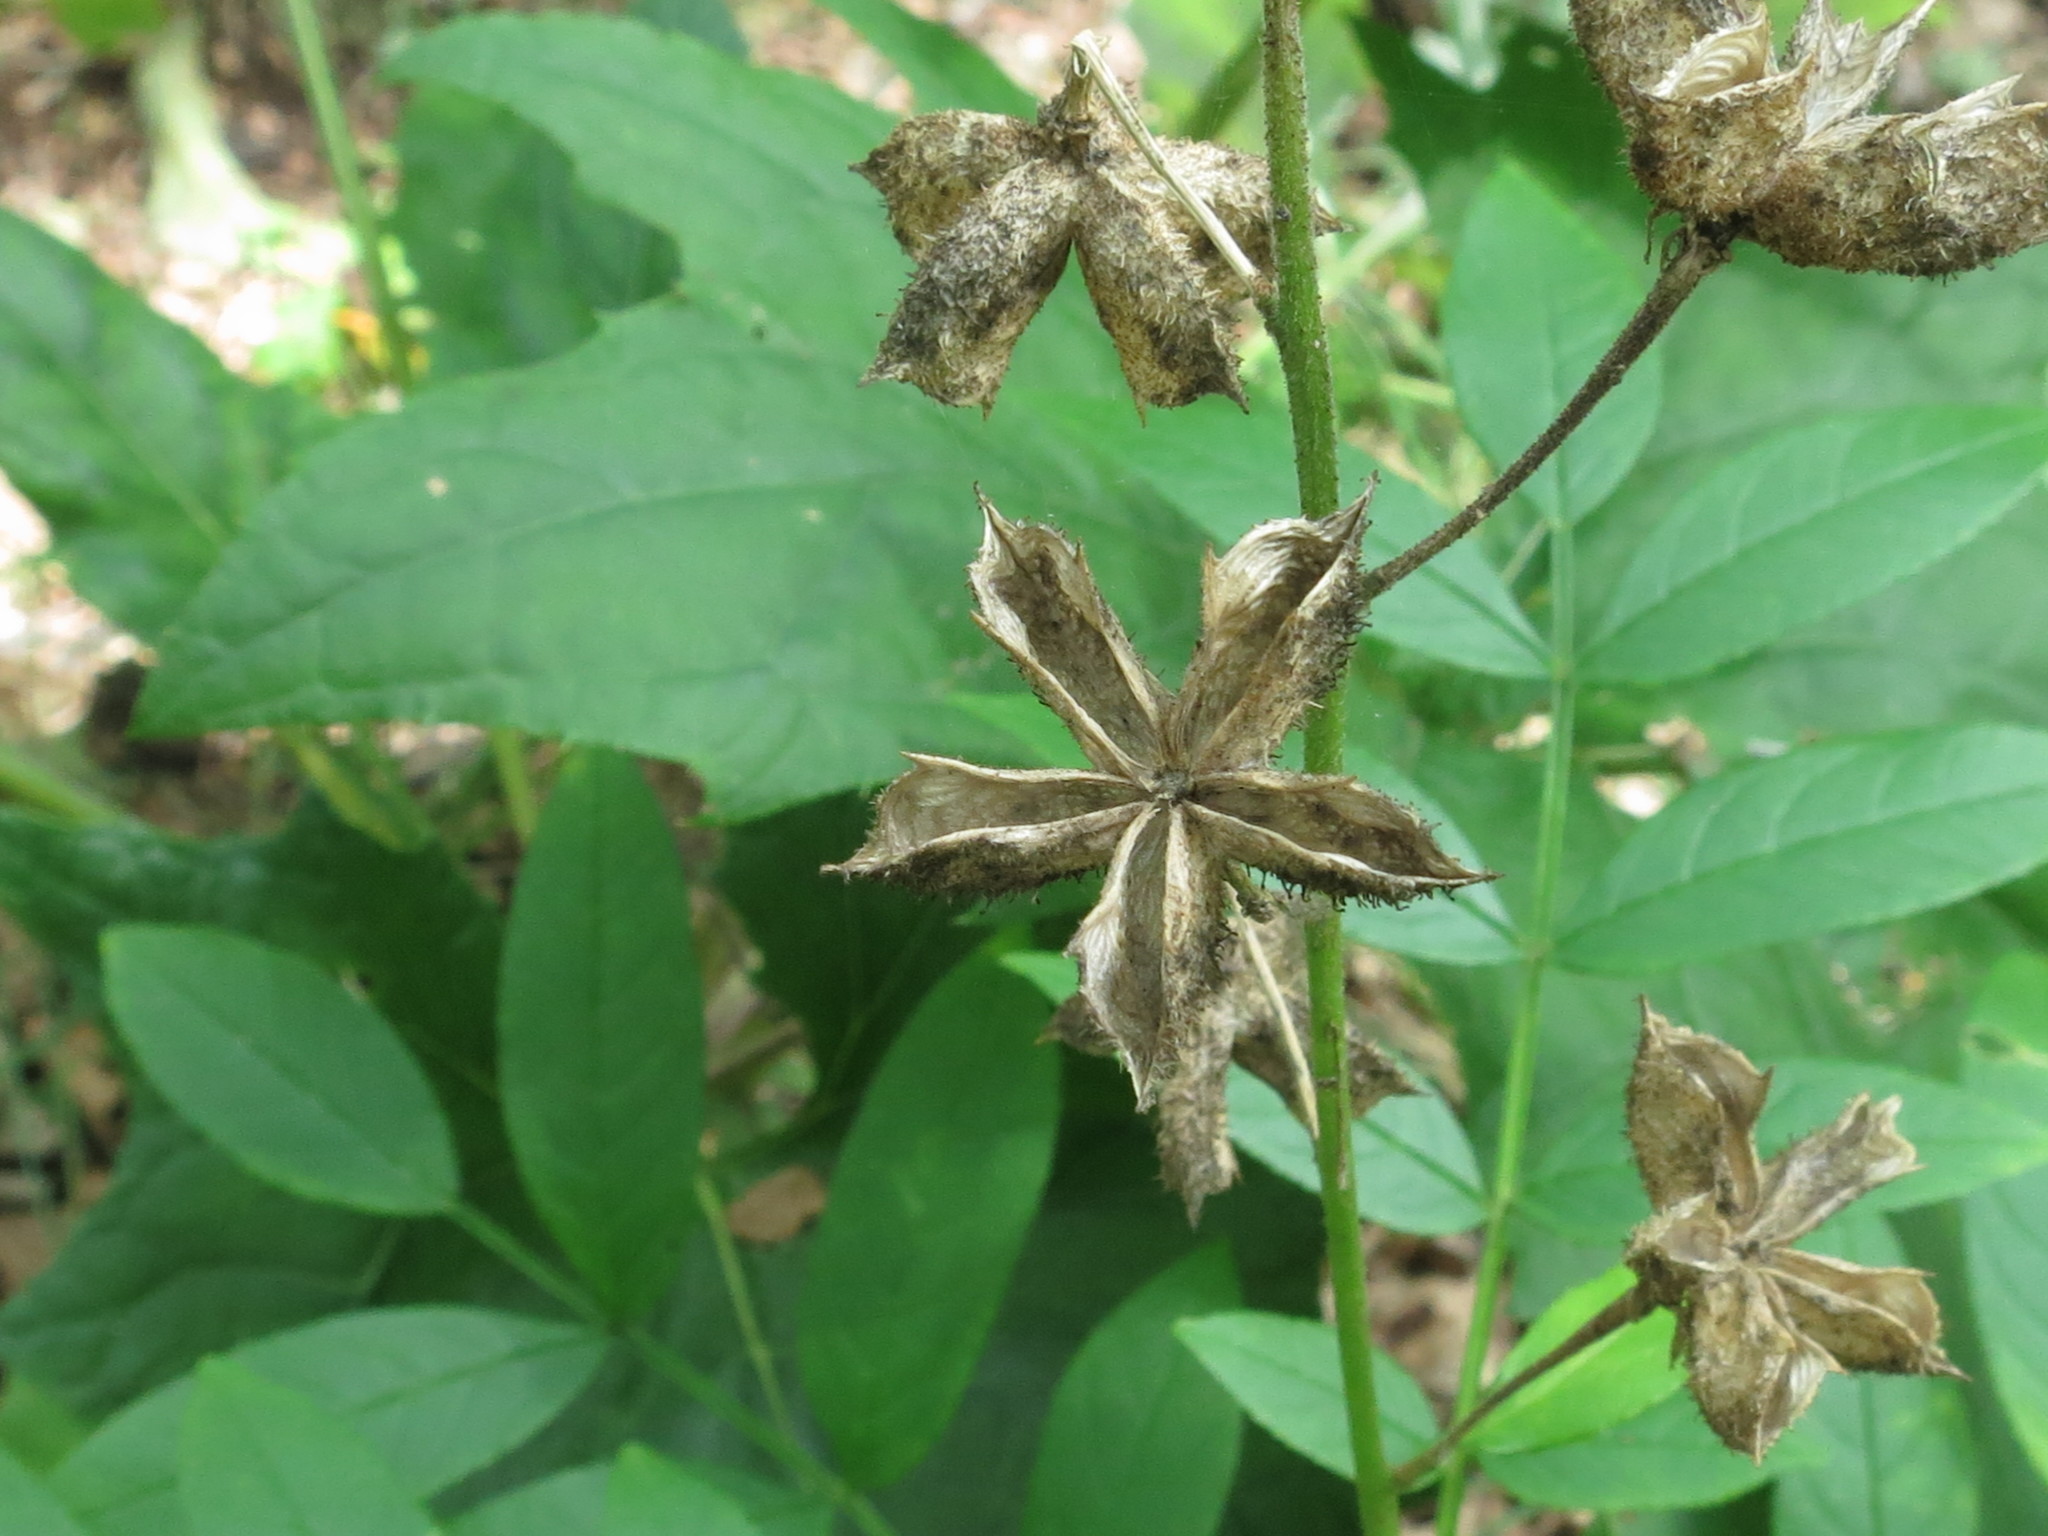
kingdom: Plantae
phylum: Tracheophyta
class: Magnoliopsida
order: Sapindales
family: Rutaceae
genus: Dictamnus
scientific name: Dictamnus dasycarpus
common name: Dense-fruit dittany
